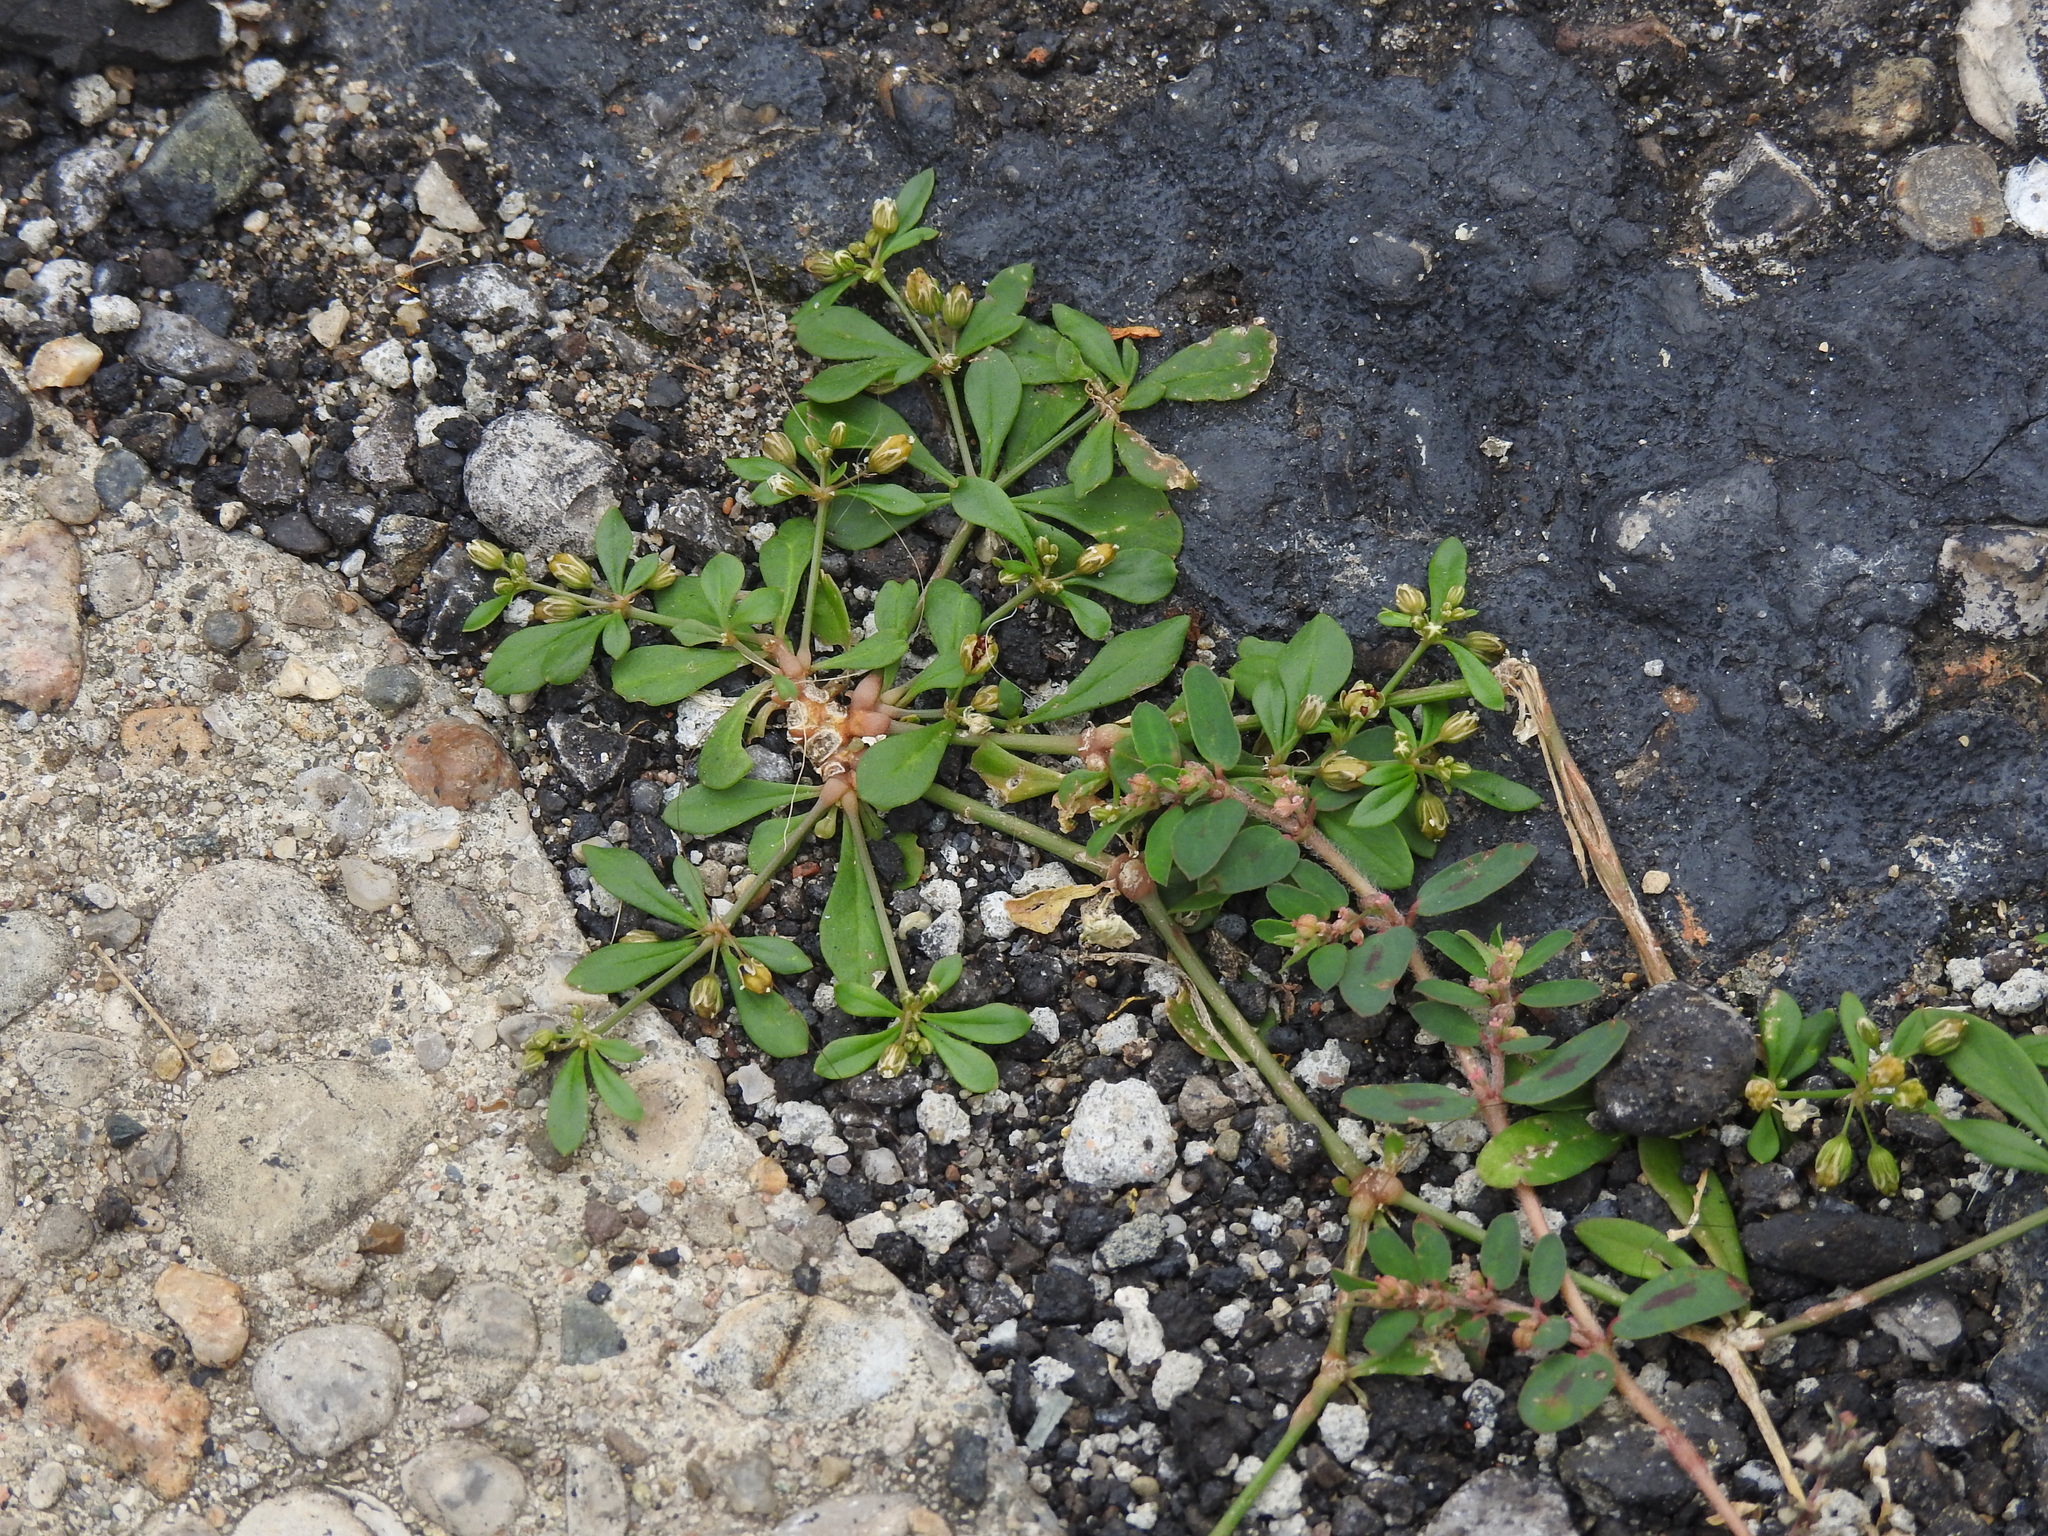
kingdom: Plantae
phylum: Tracheophyta
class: Magnoliopsida
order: Caryophyllales
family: Molluginaceae
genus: Mollugo
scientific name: Mollugo verticillata
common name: Green carpetweed
